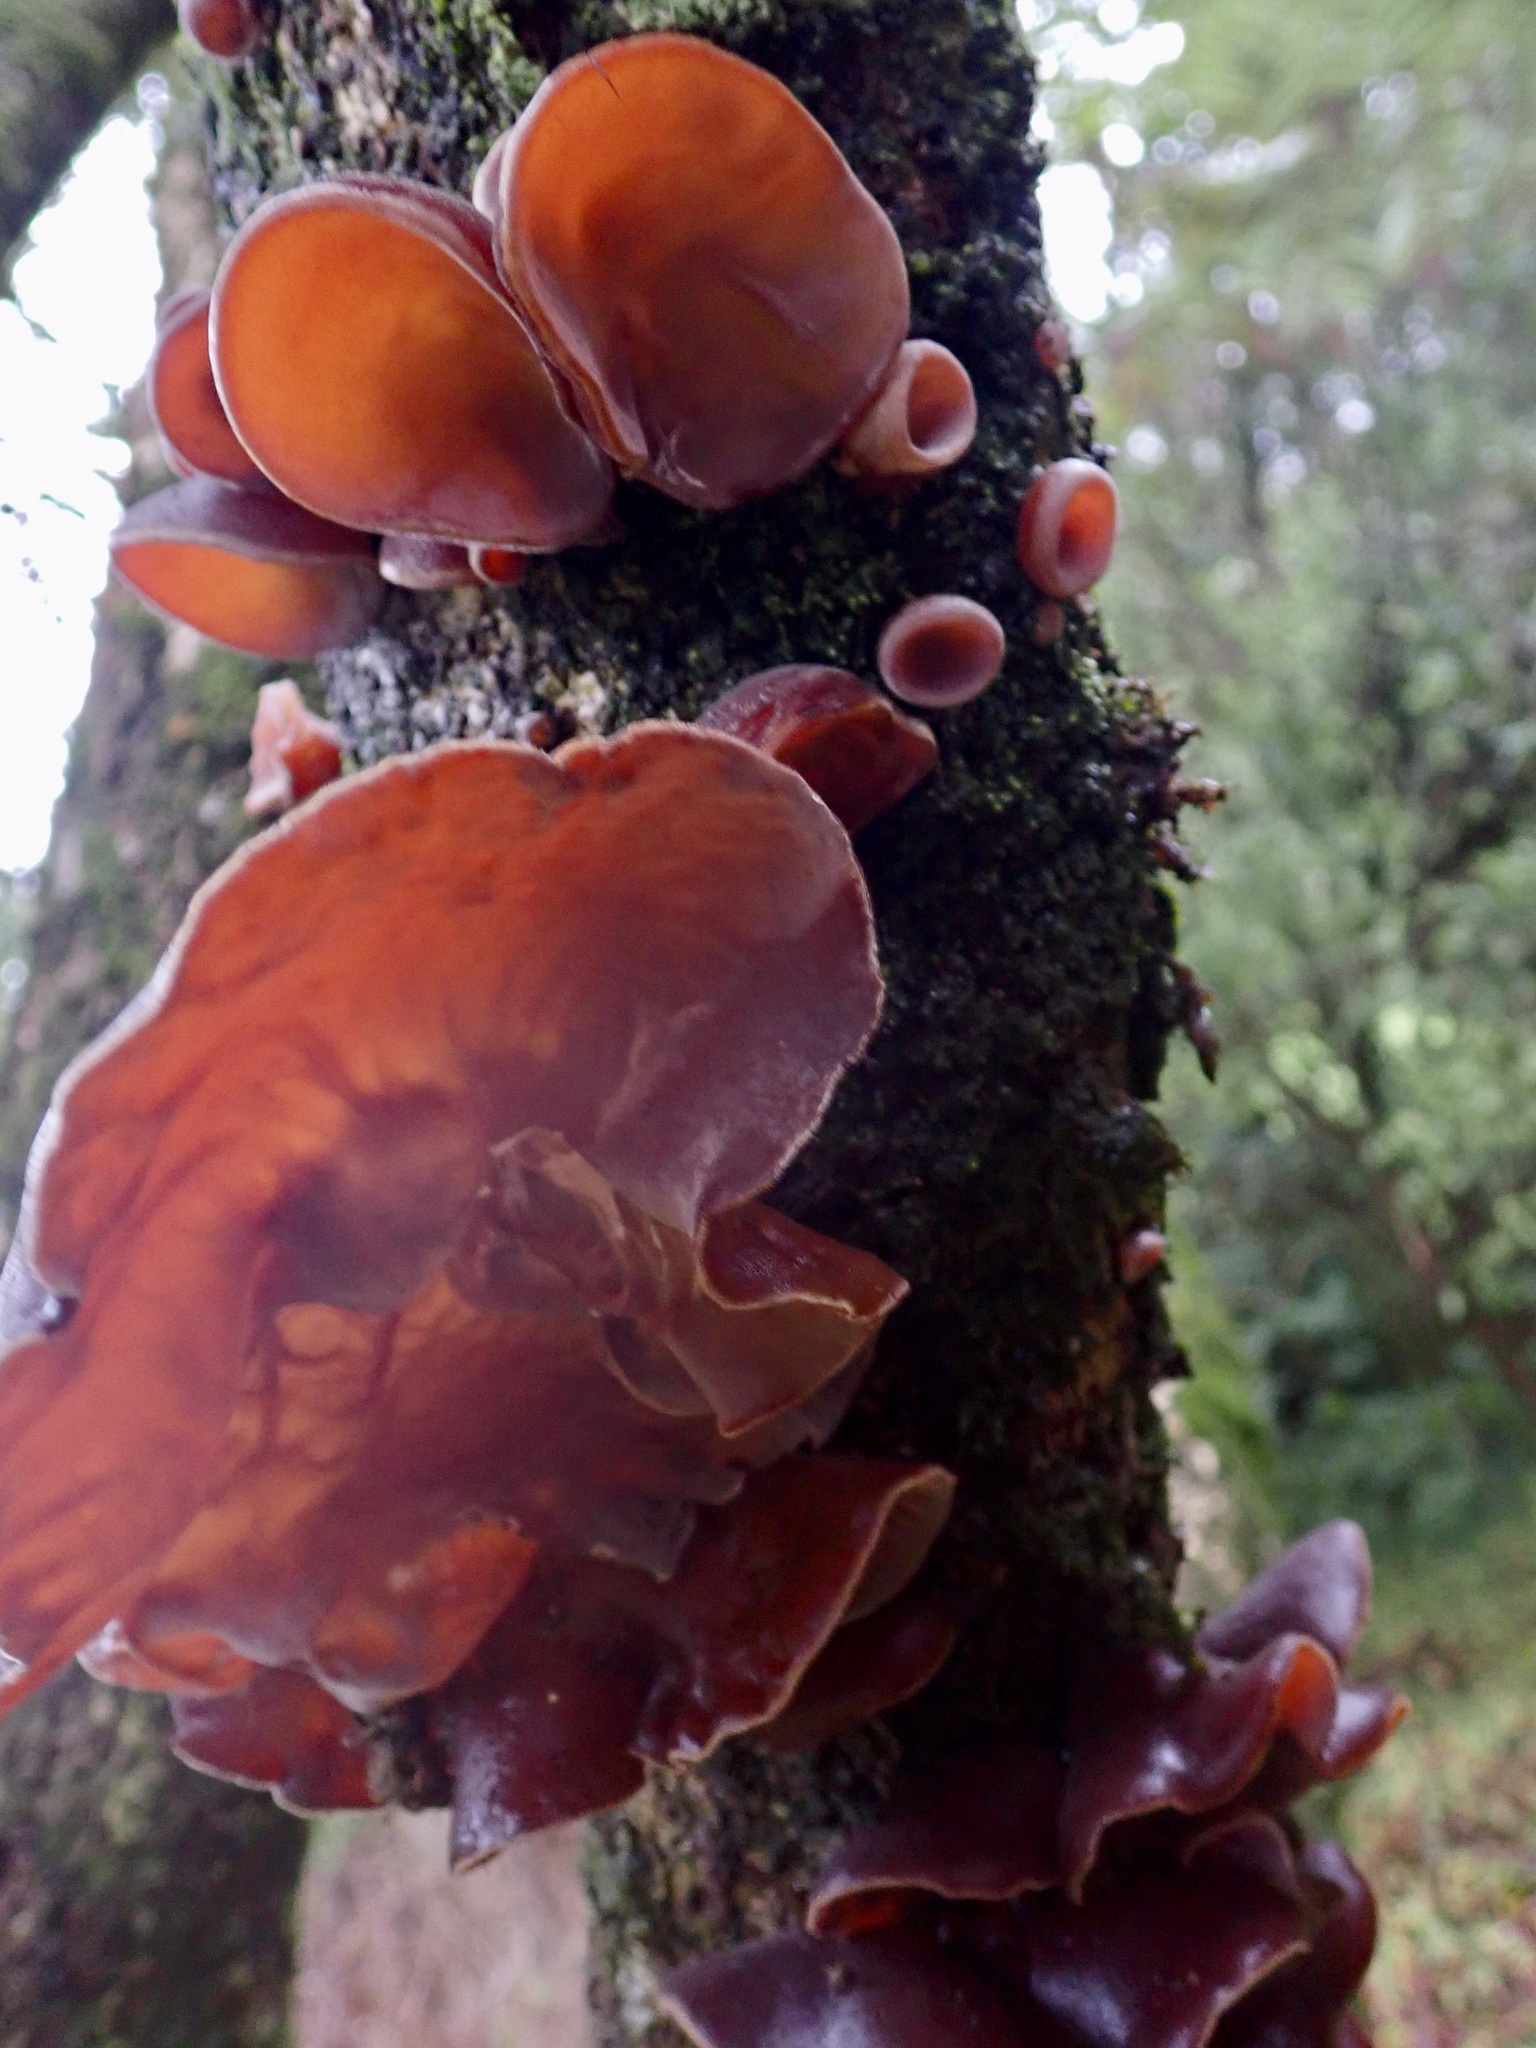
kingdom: Fungi
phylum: Basidiomycota
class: Agaricomycetes
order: Auriculariales
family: Auriculariaceae
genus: Auricularia
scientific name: Auricularia cornea
